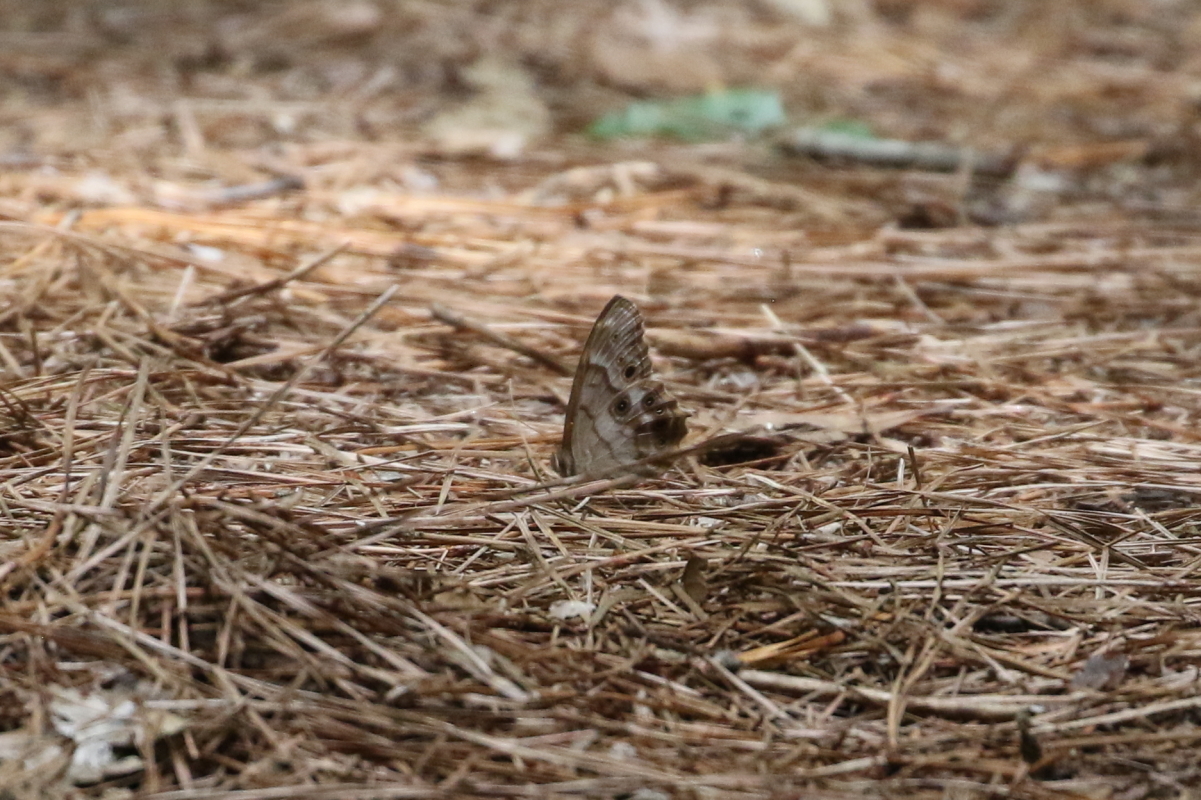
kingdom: Animalia
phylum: Arthropoda
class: Insecta
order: Lepidoptera
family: Nymphalidae
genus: Enodia
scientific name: Enodia portlandia
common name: Southern pearly-eye
